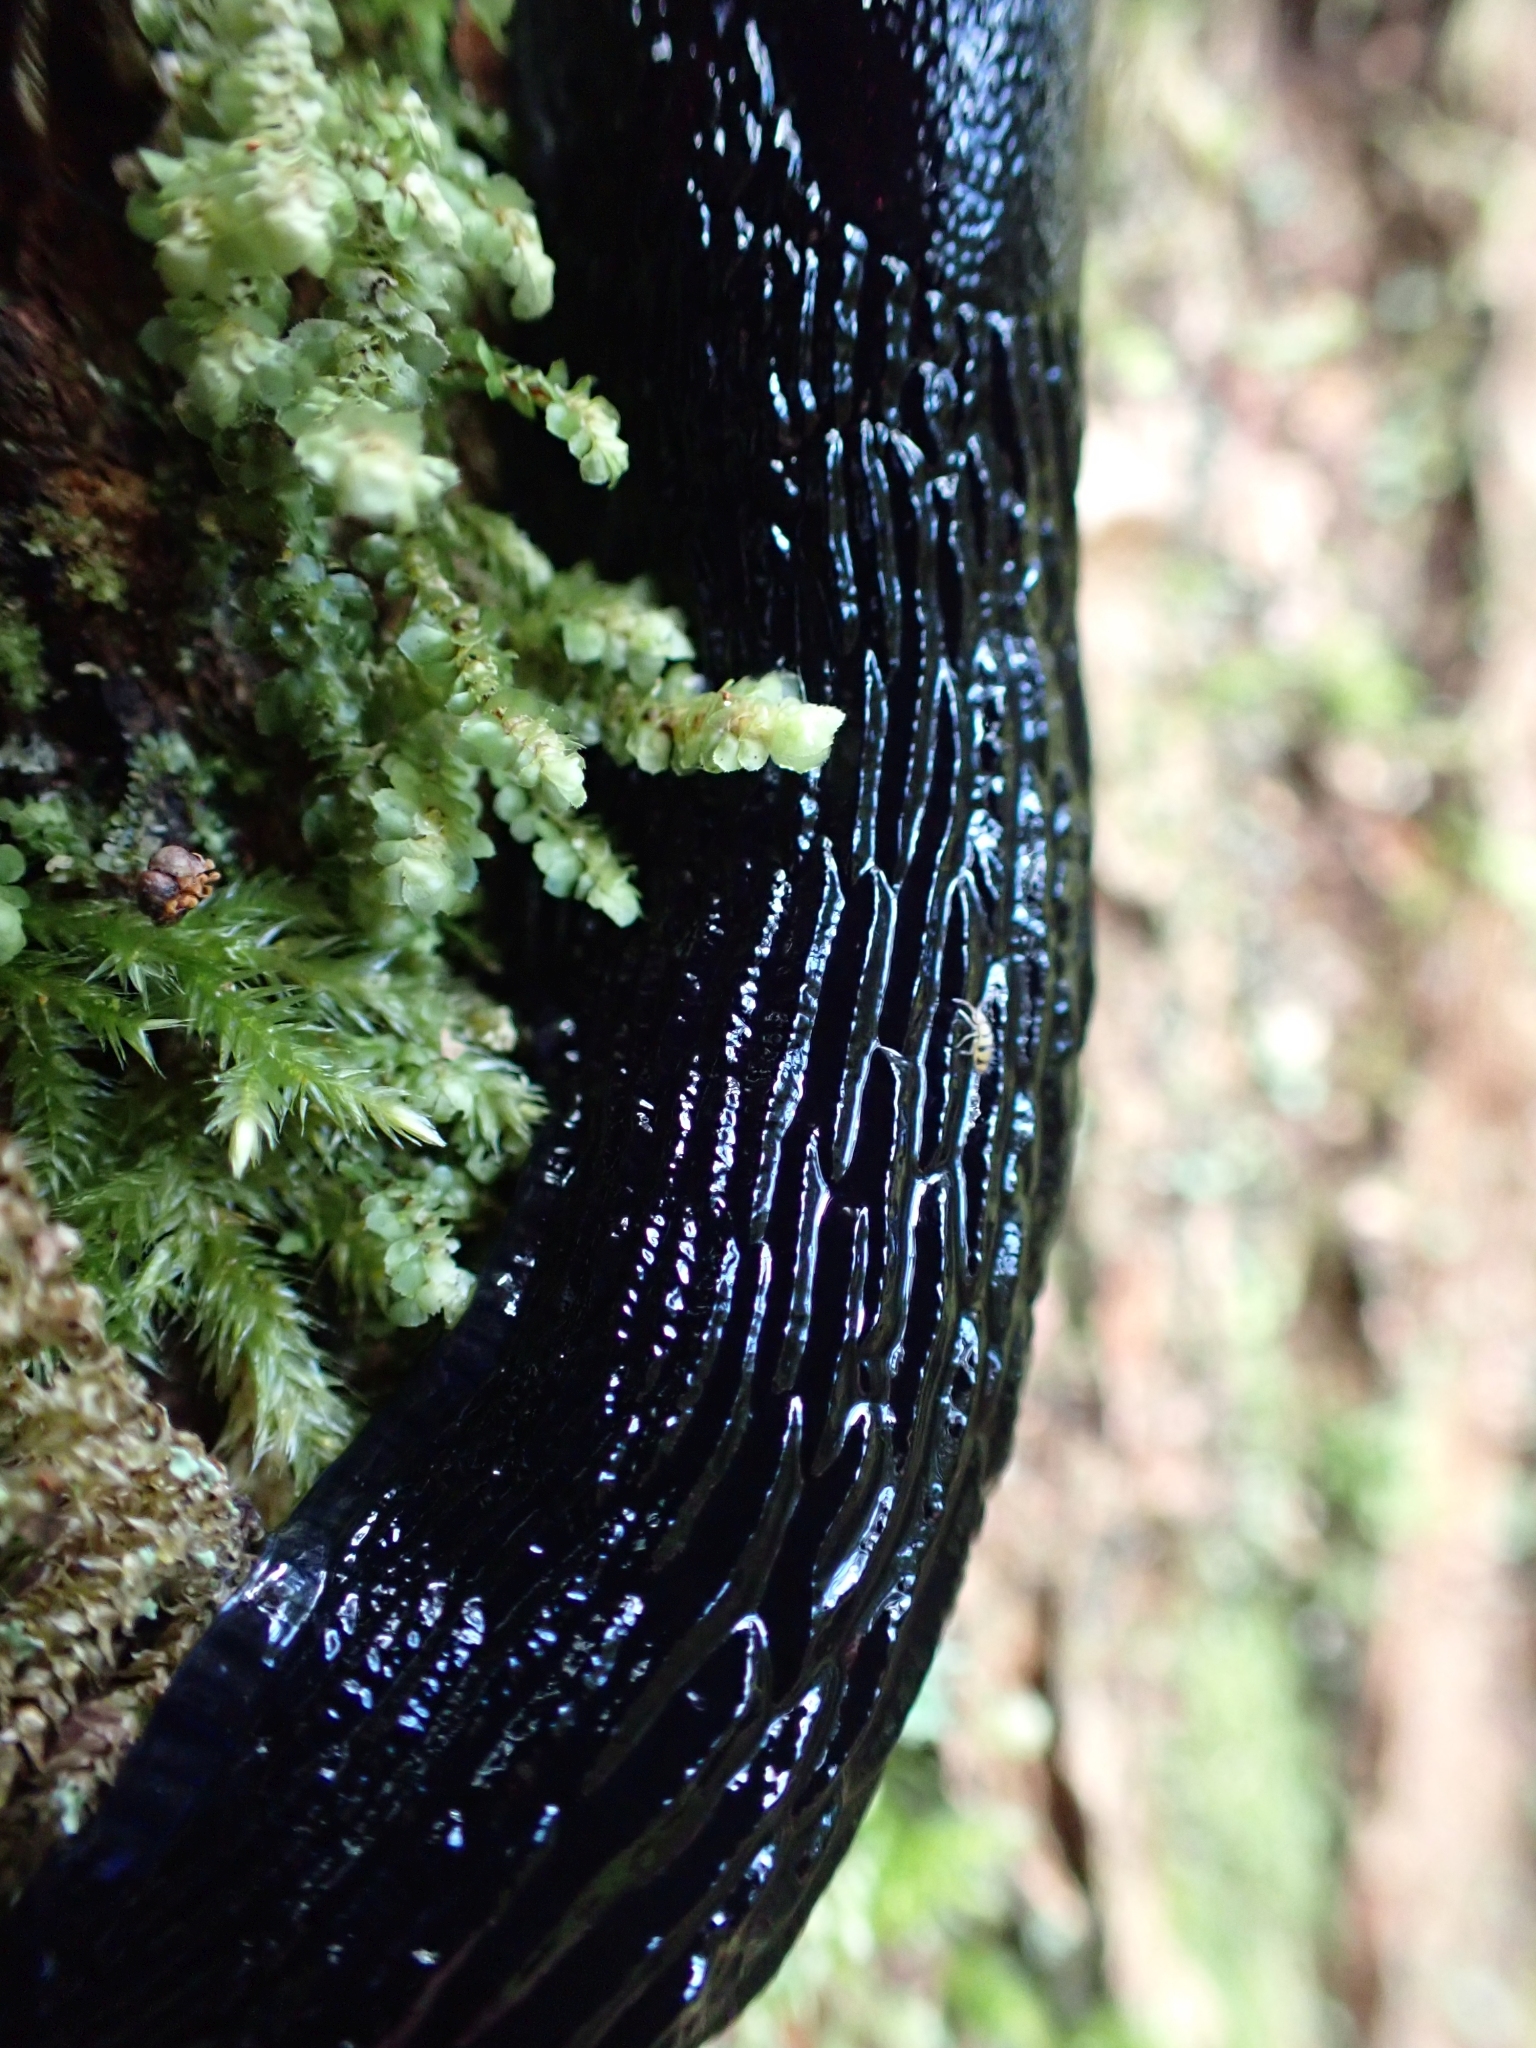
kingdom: Animalia
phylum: Mollusca
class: Gastropoda
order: Stylommatophora
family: Arionidae
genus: Arion
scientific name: Arion
